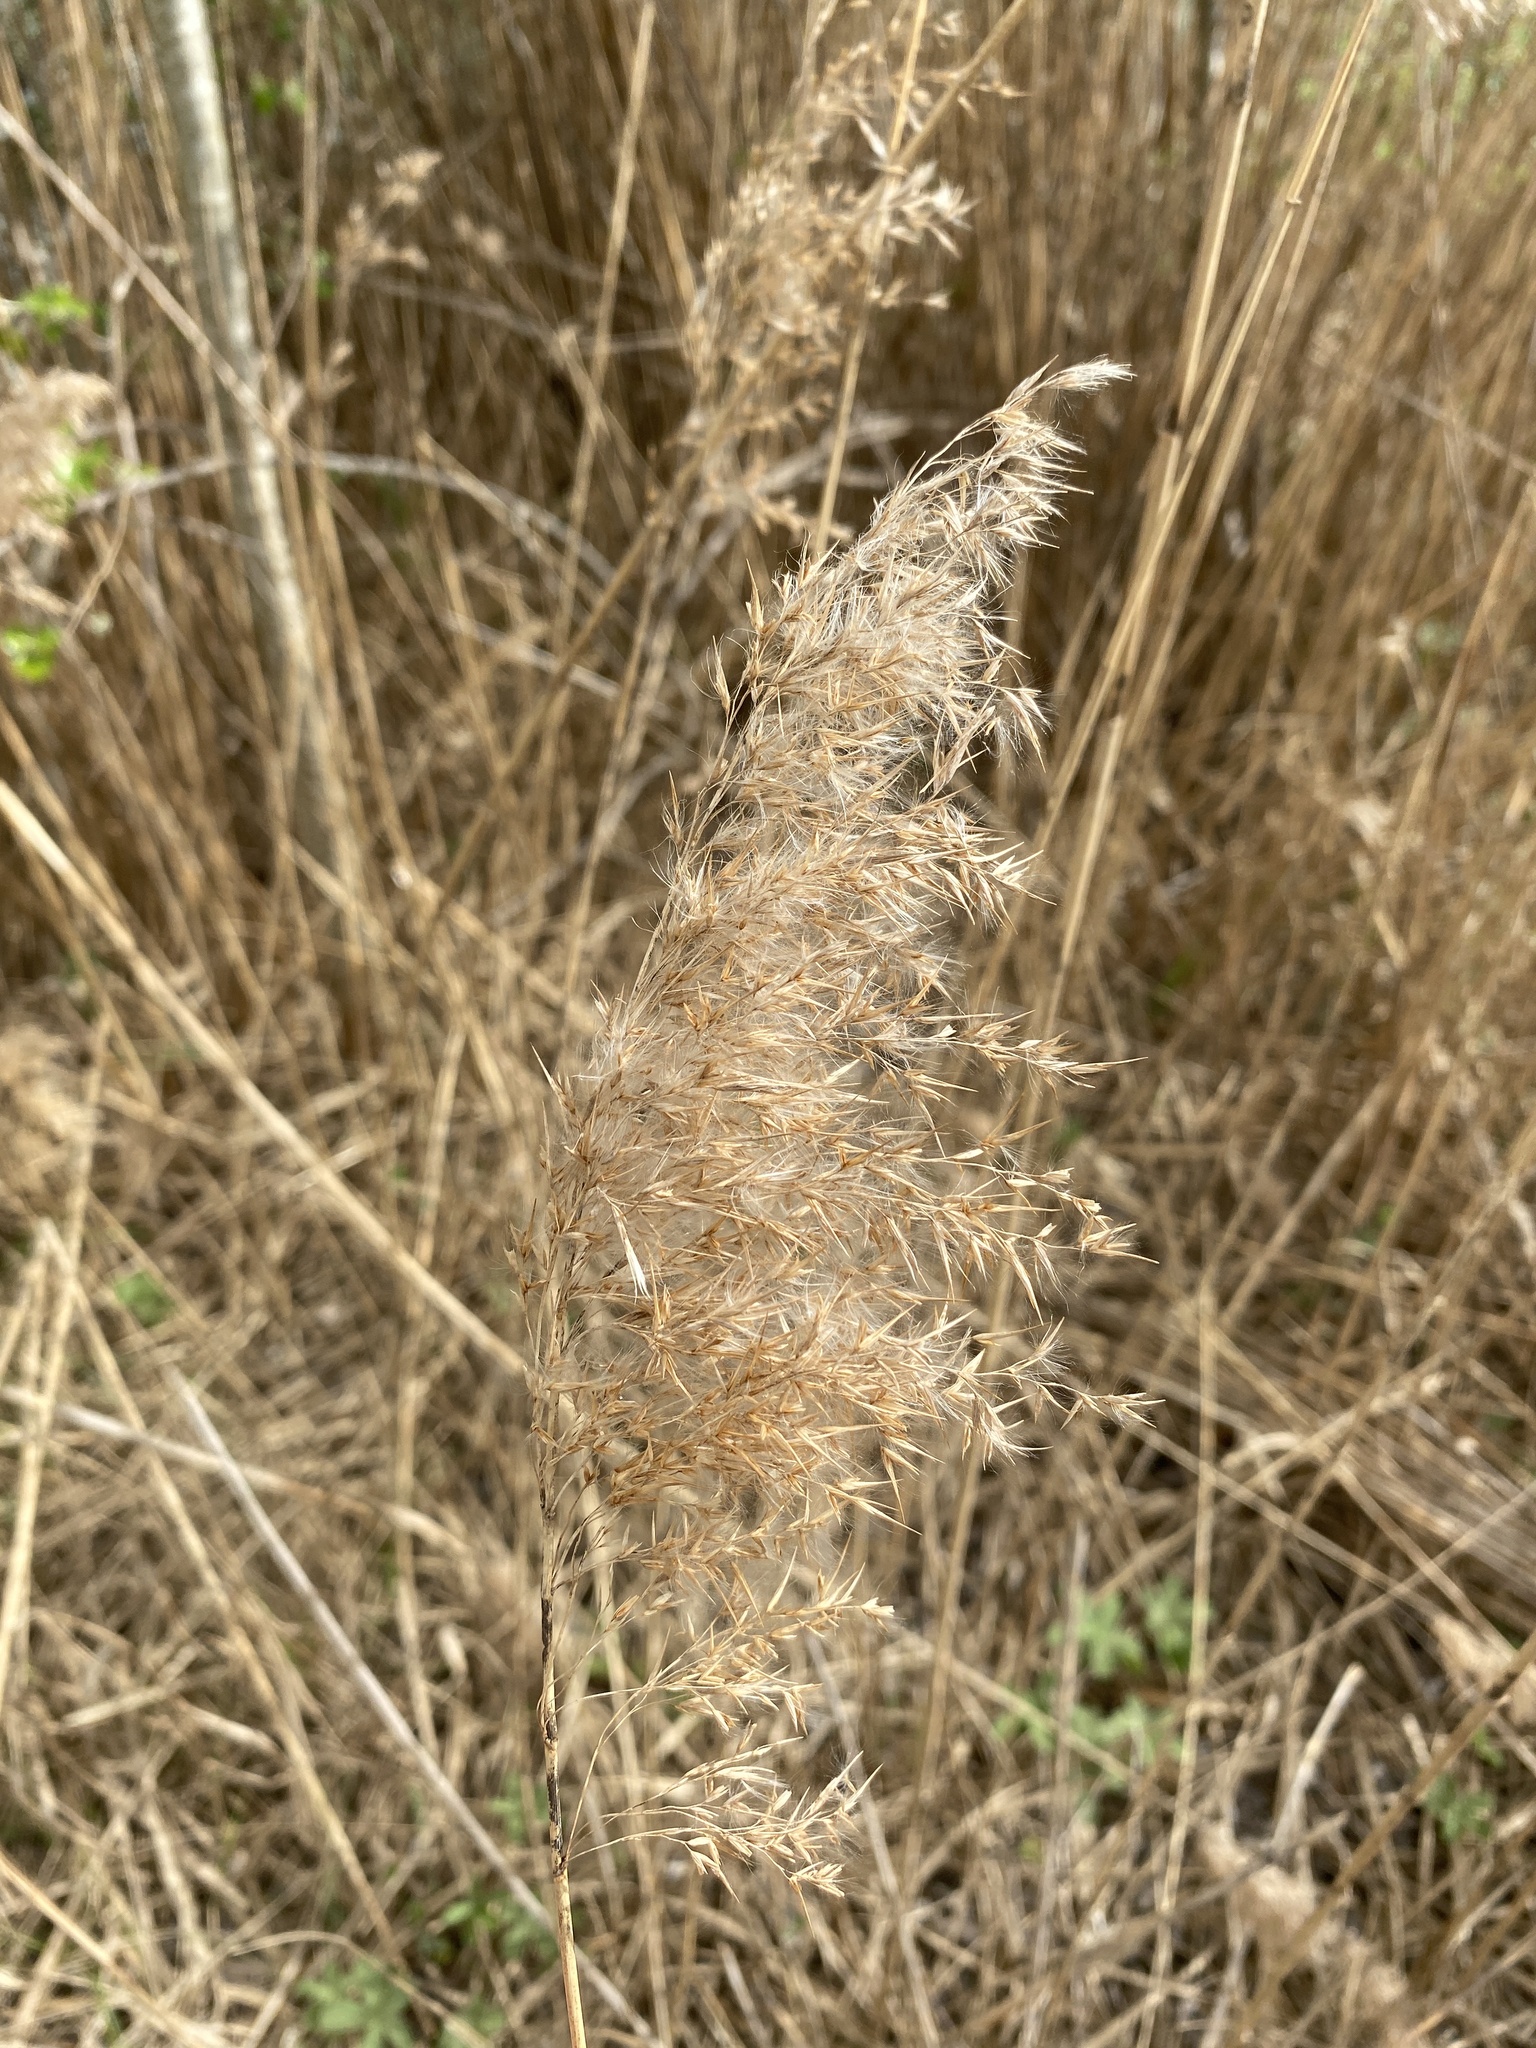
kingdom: Plantae
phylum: Tracheophyta
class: Liliopsida
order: Poales
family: Poaceae
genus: Phragmites
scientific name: Phragmites australis
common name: Common reed
